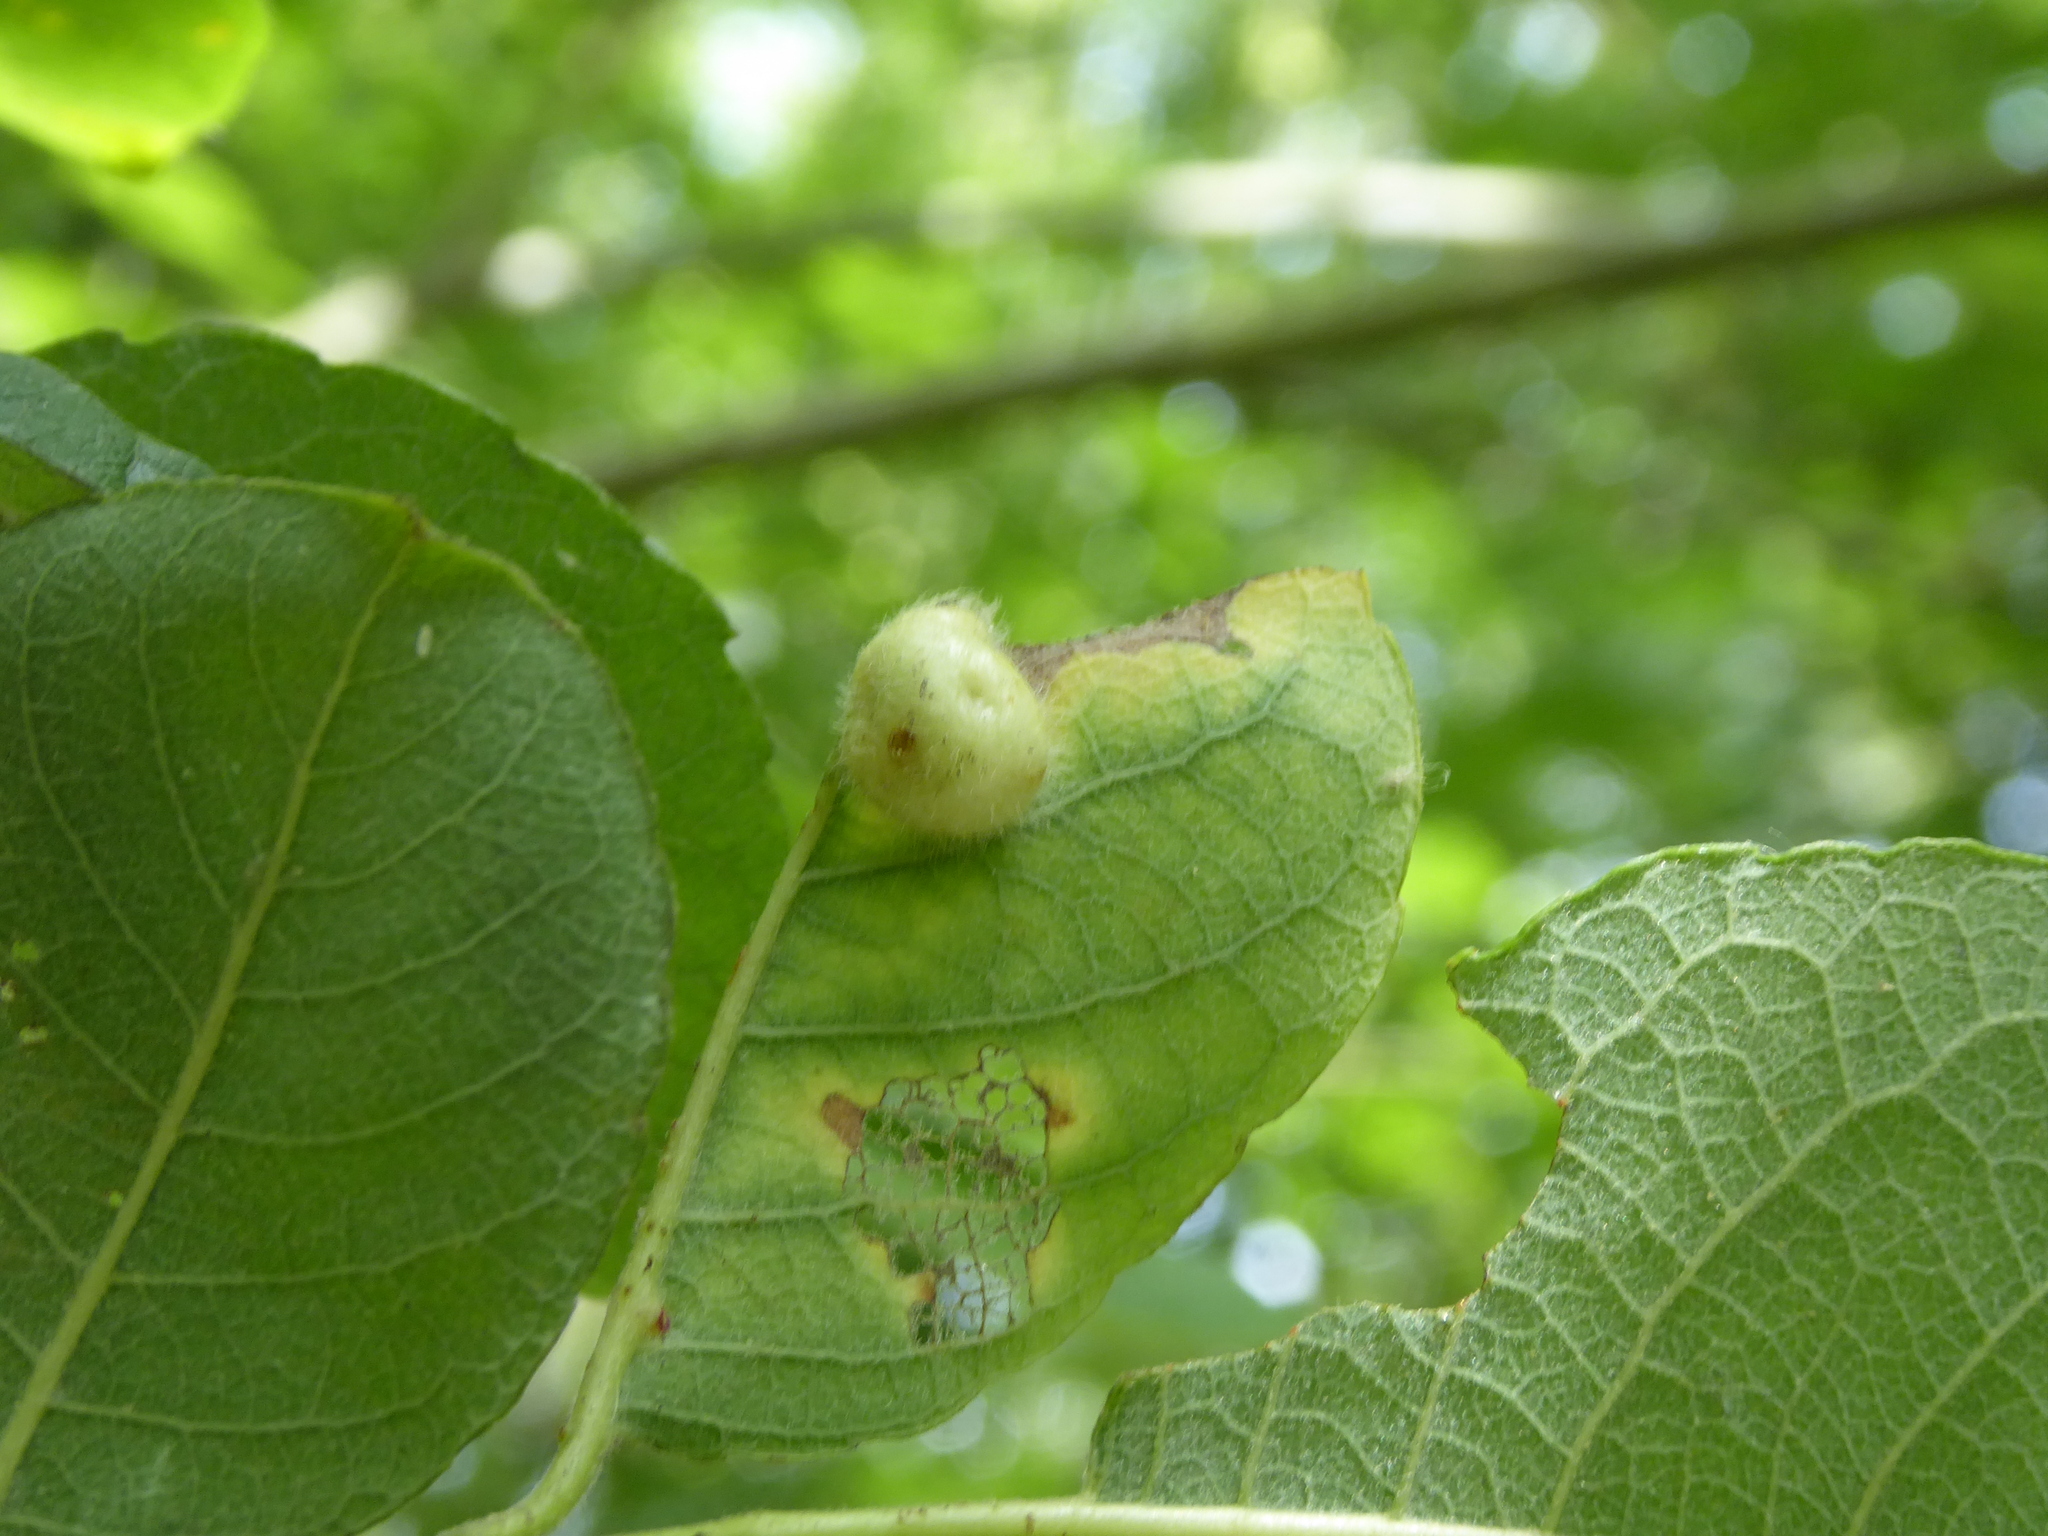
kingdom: Animalia
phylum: Arthropoda
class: Insecta
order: Hymenoptera
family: Tenthredinidae
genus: Pontania
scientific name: Pontania pedunculi
